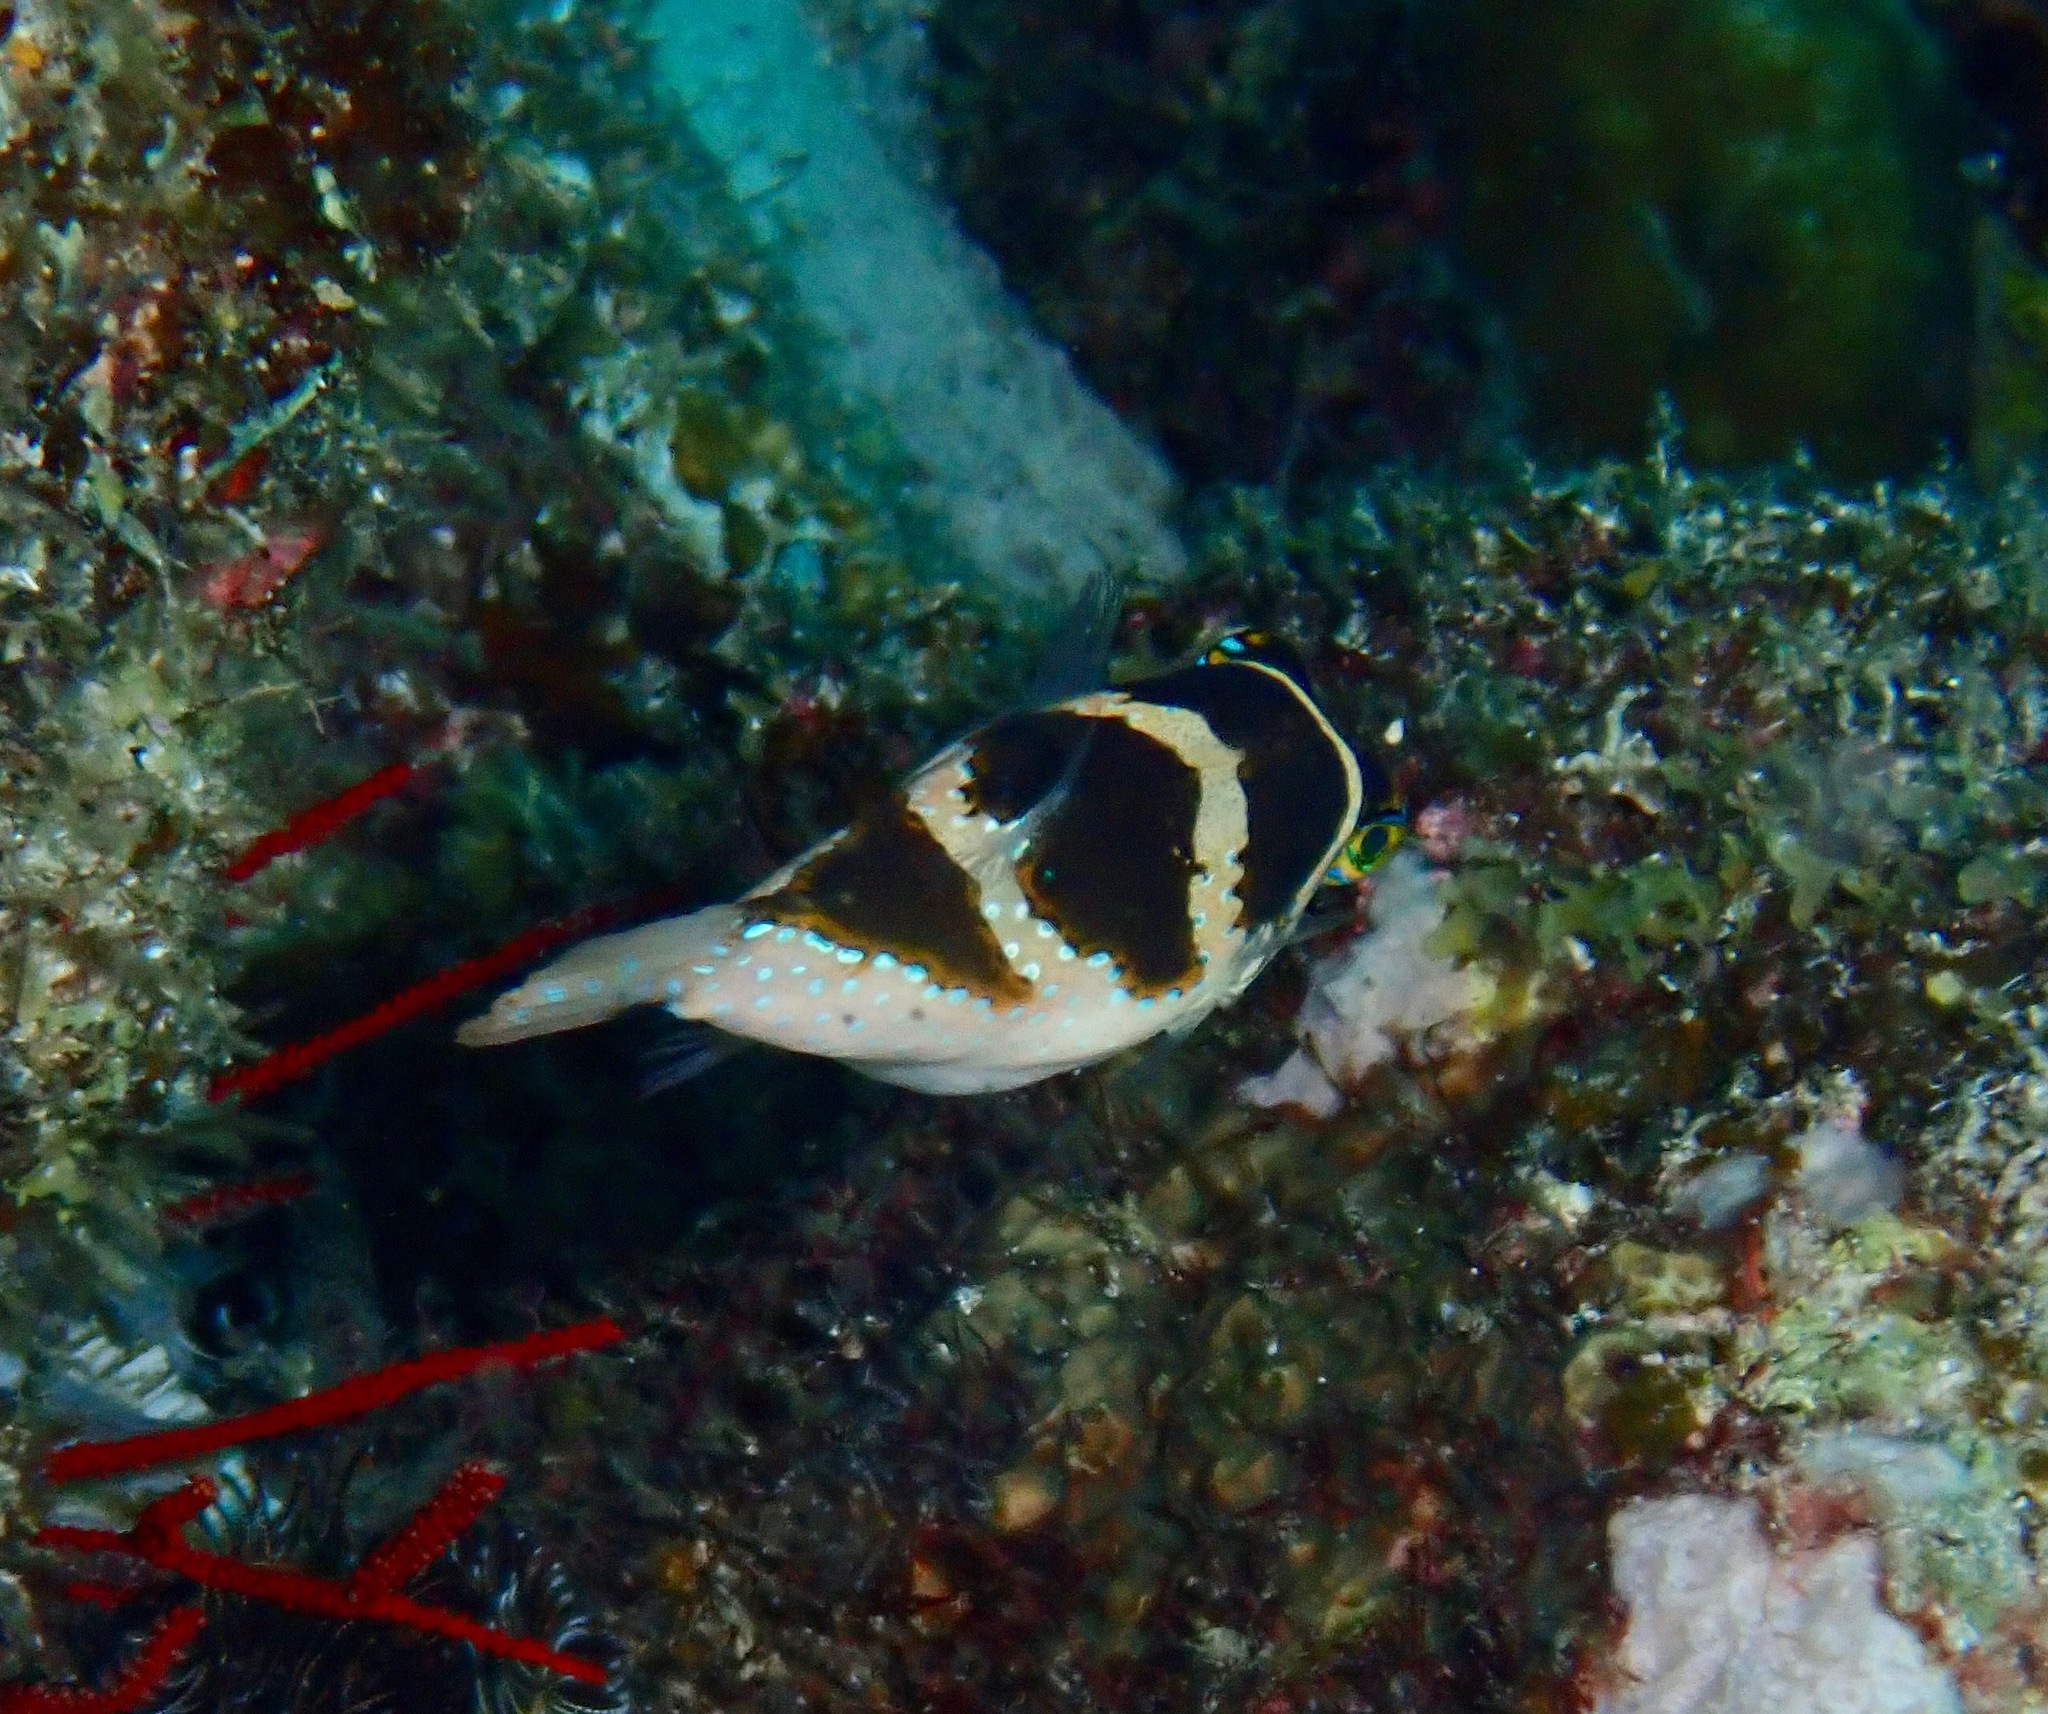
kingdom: Animalia
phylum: Chordata
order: Tetraodontiformes
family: Tetraodontidae
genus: Canthigaster
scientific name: Canthigaster cyanospilota
